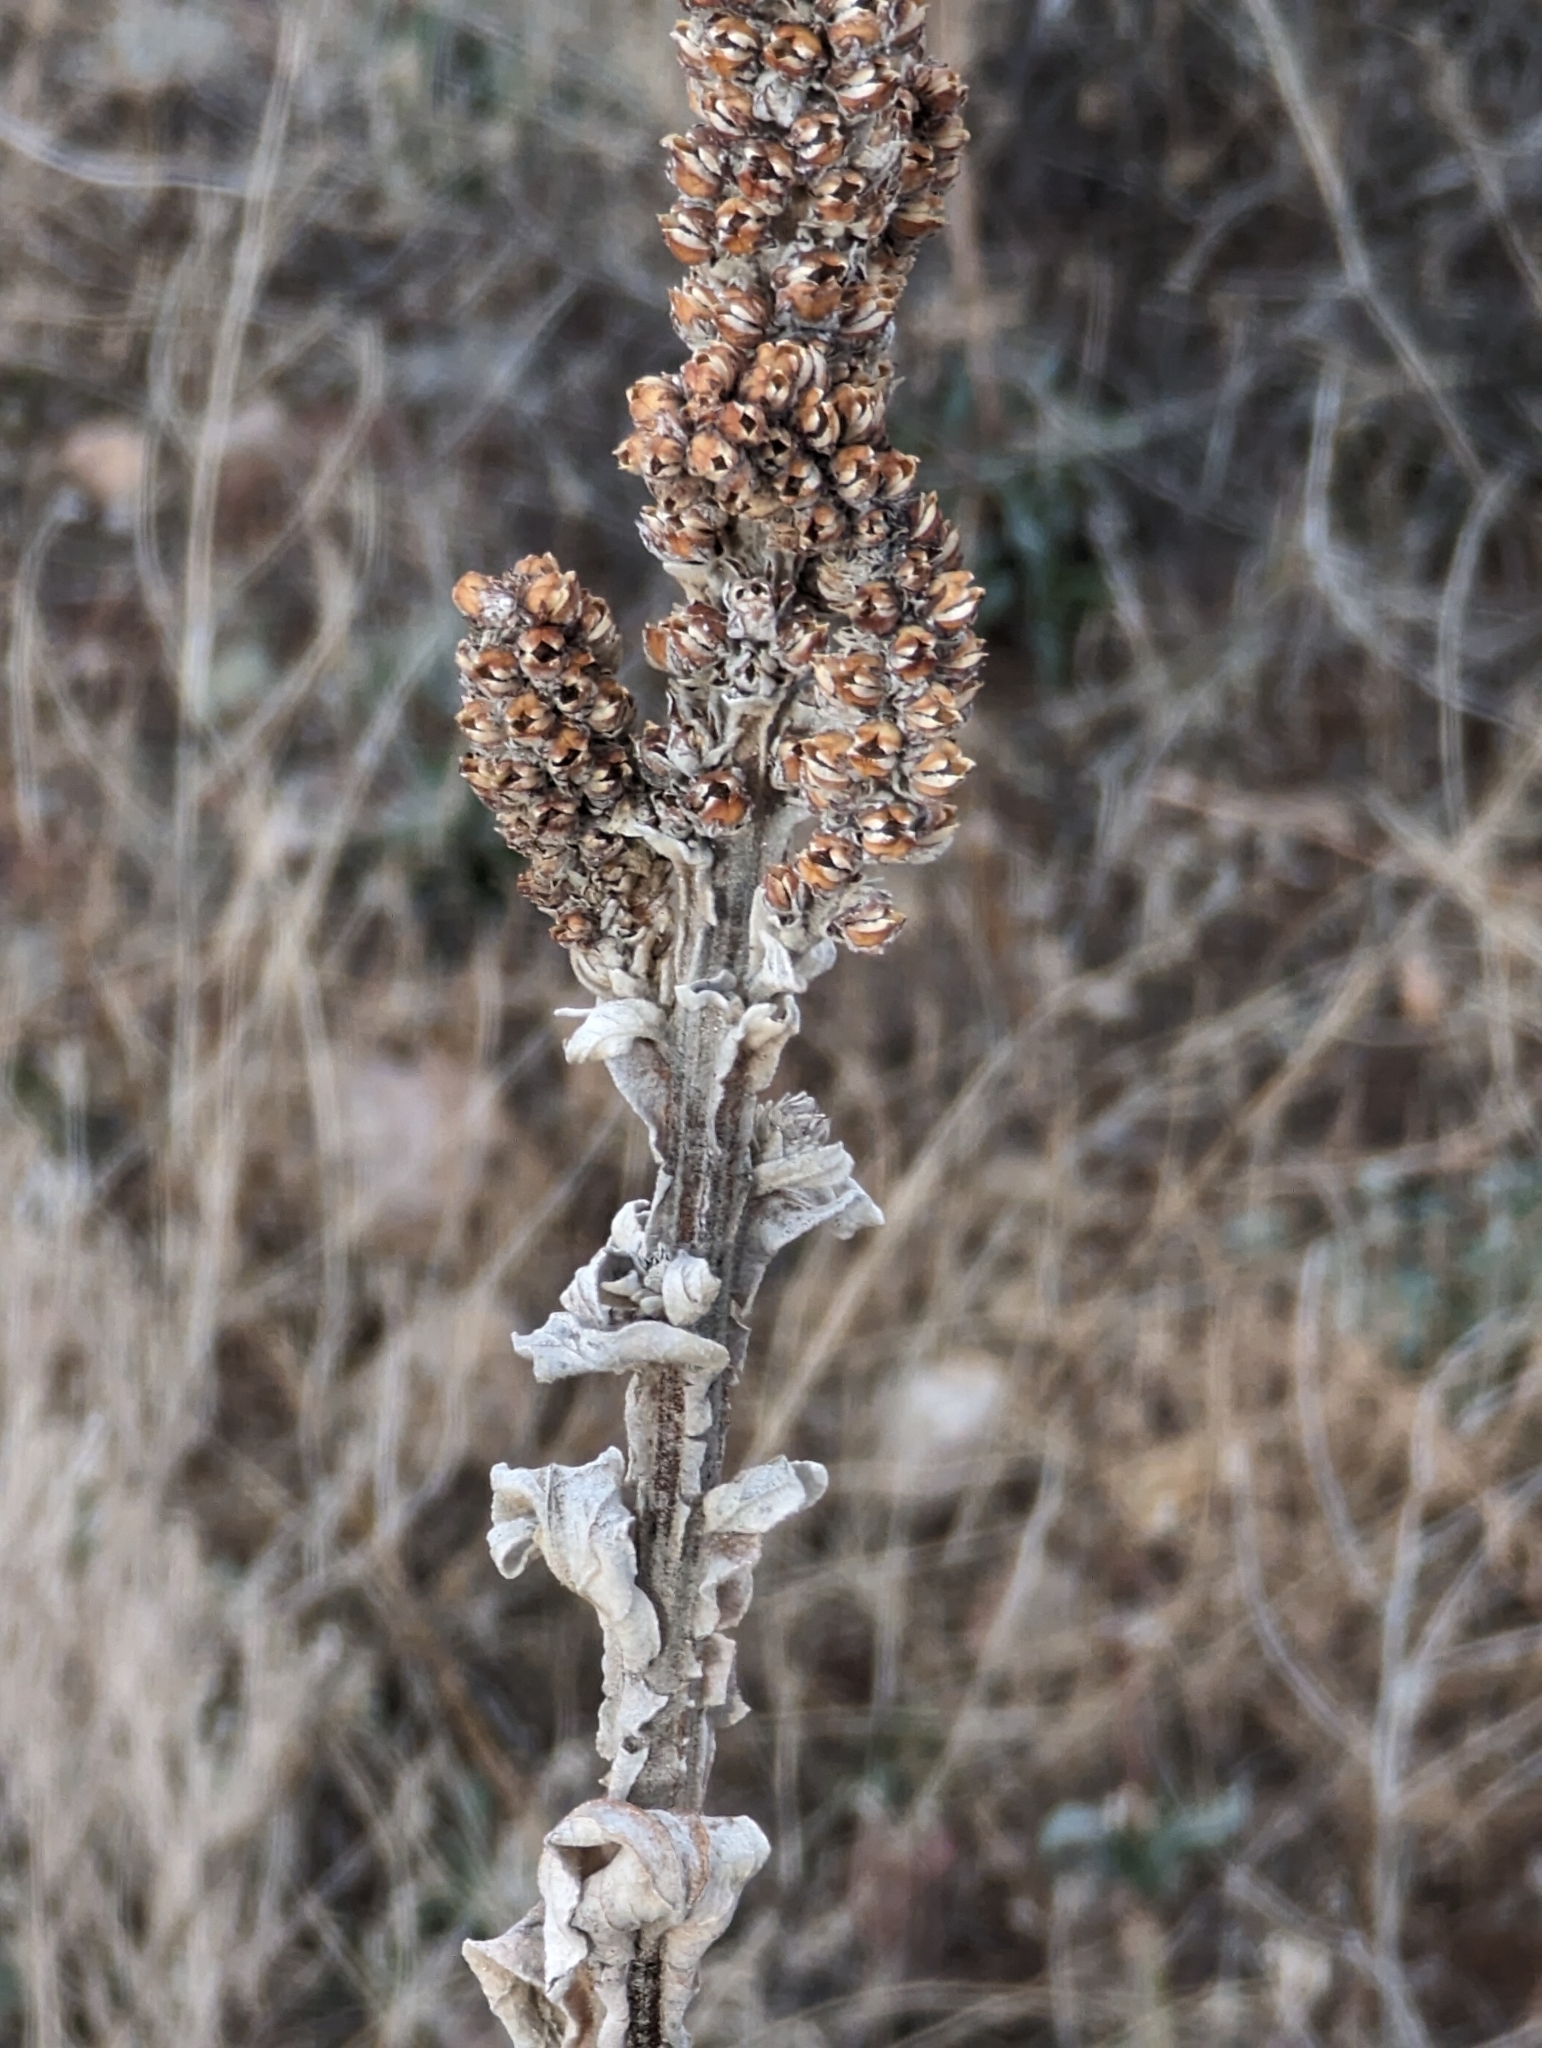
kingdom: Plantae
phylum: Tracheophyta
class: Magnoliopsida
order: Lamiales
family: Scrophulariaceae
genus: Verbascum
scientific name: Verbascum thapsus
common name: Common mullein
